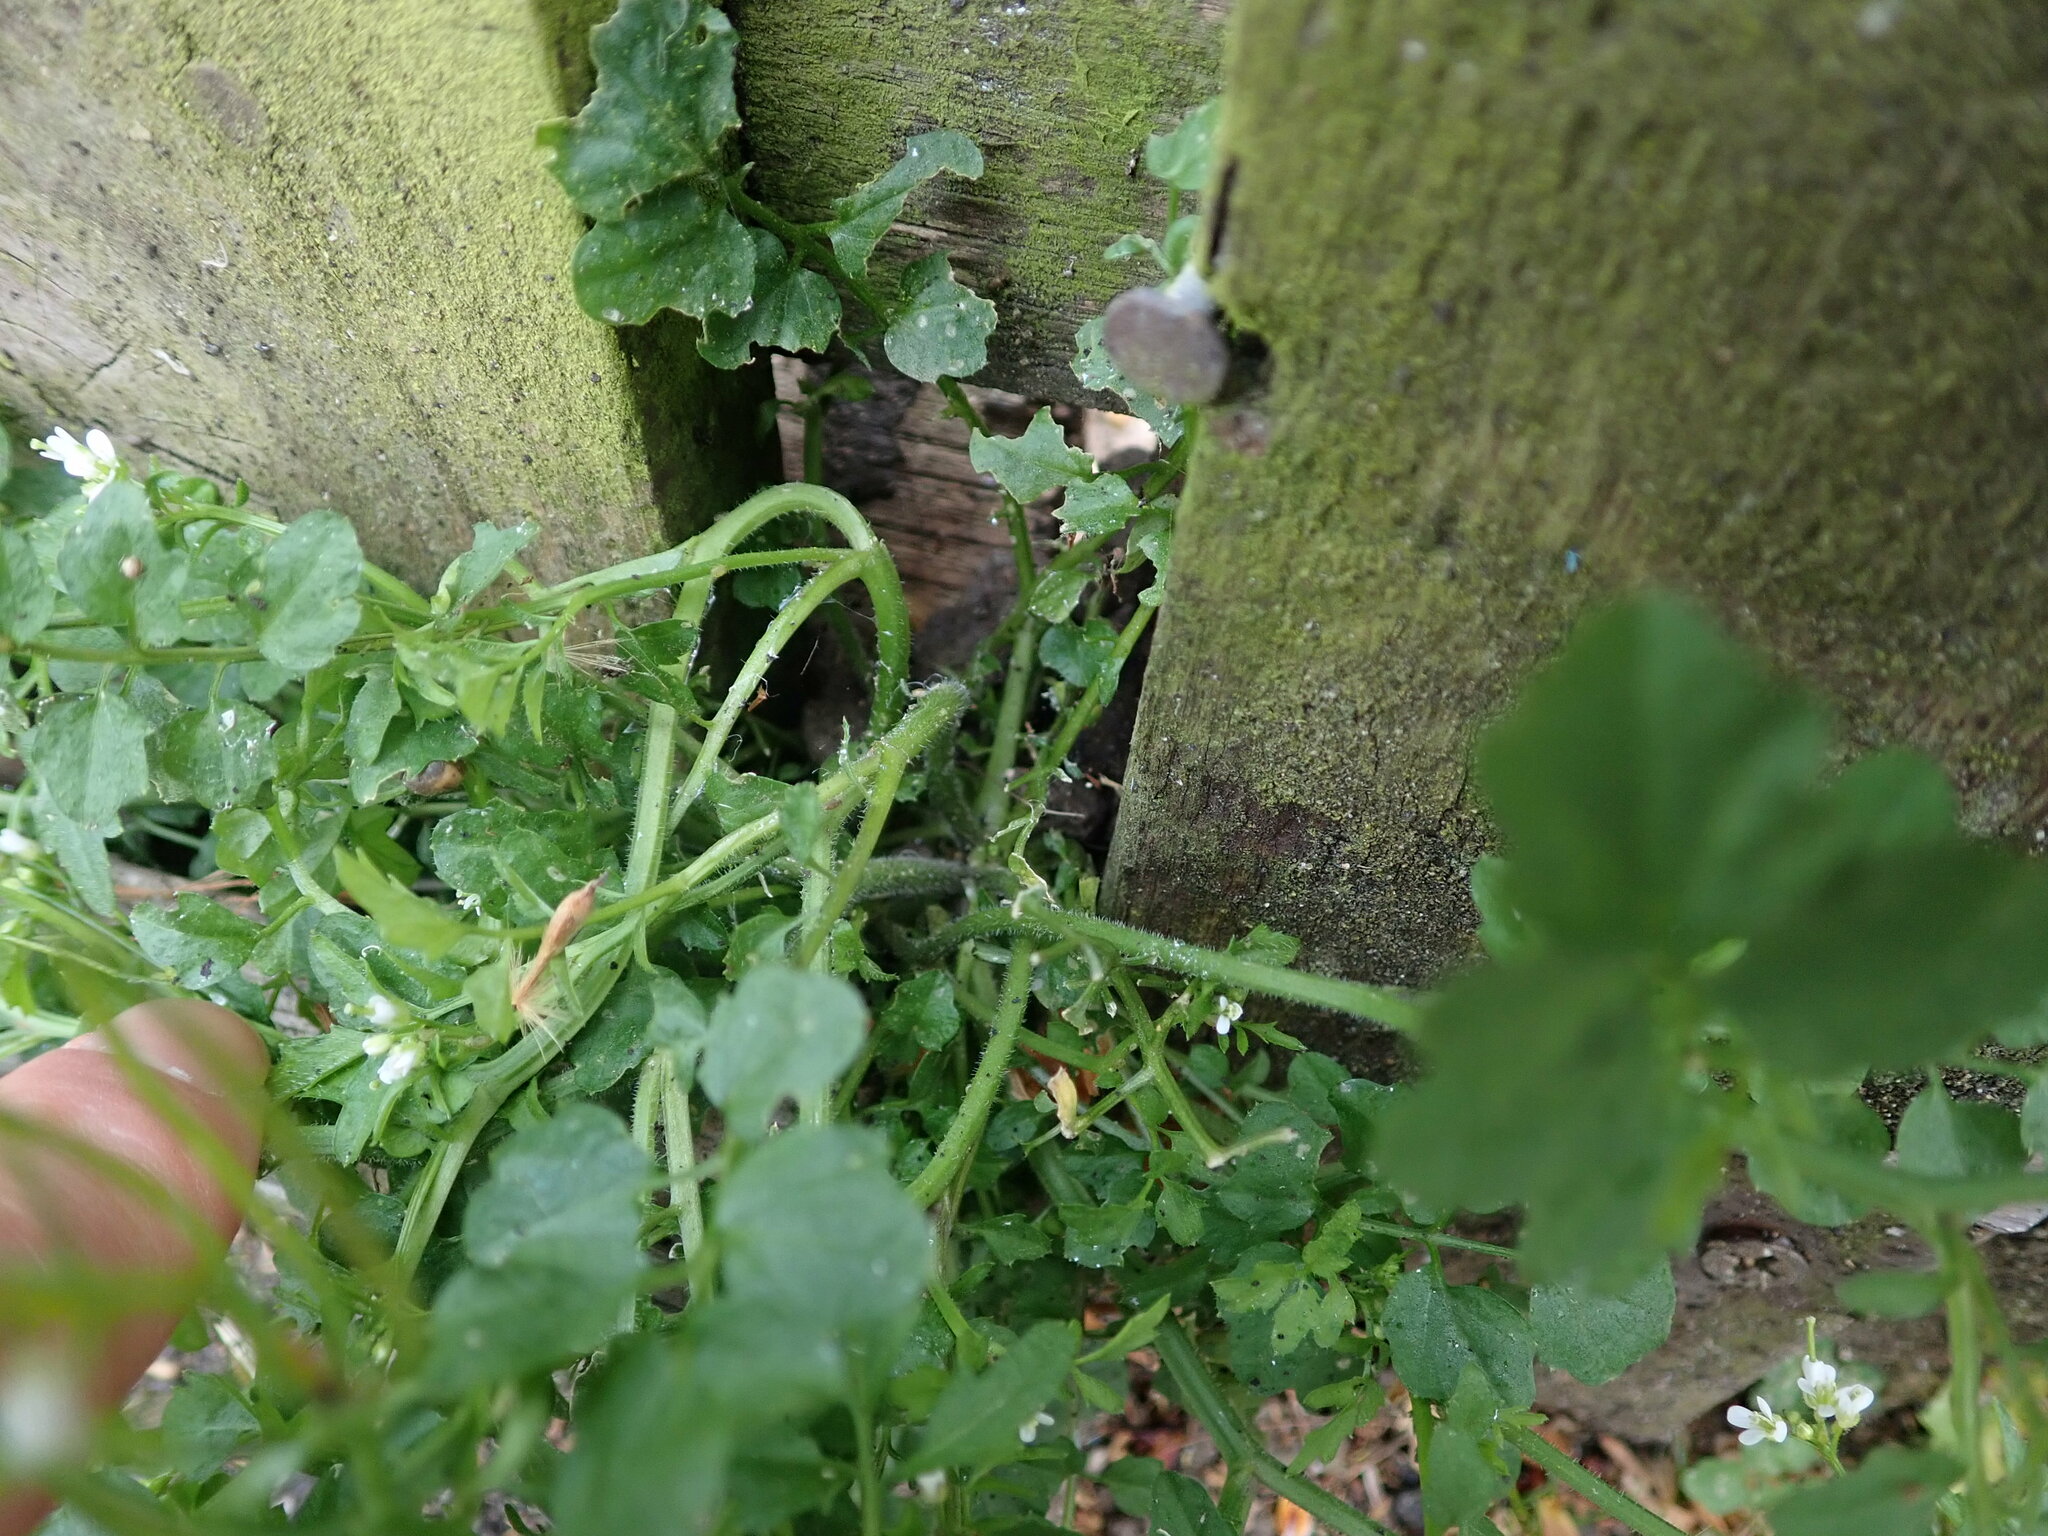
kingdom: Plantae
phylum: Tracheophyta
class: Magnoliopsida
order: Brassicales
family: Brassicaceae
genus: Cardamine
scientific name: Cardamine flexuosa
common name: Woodland bittercress
